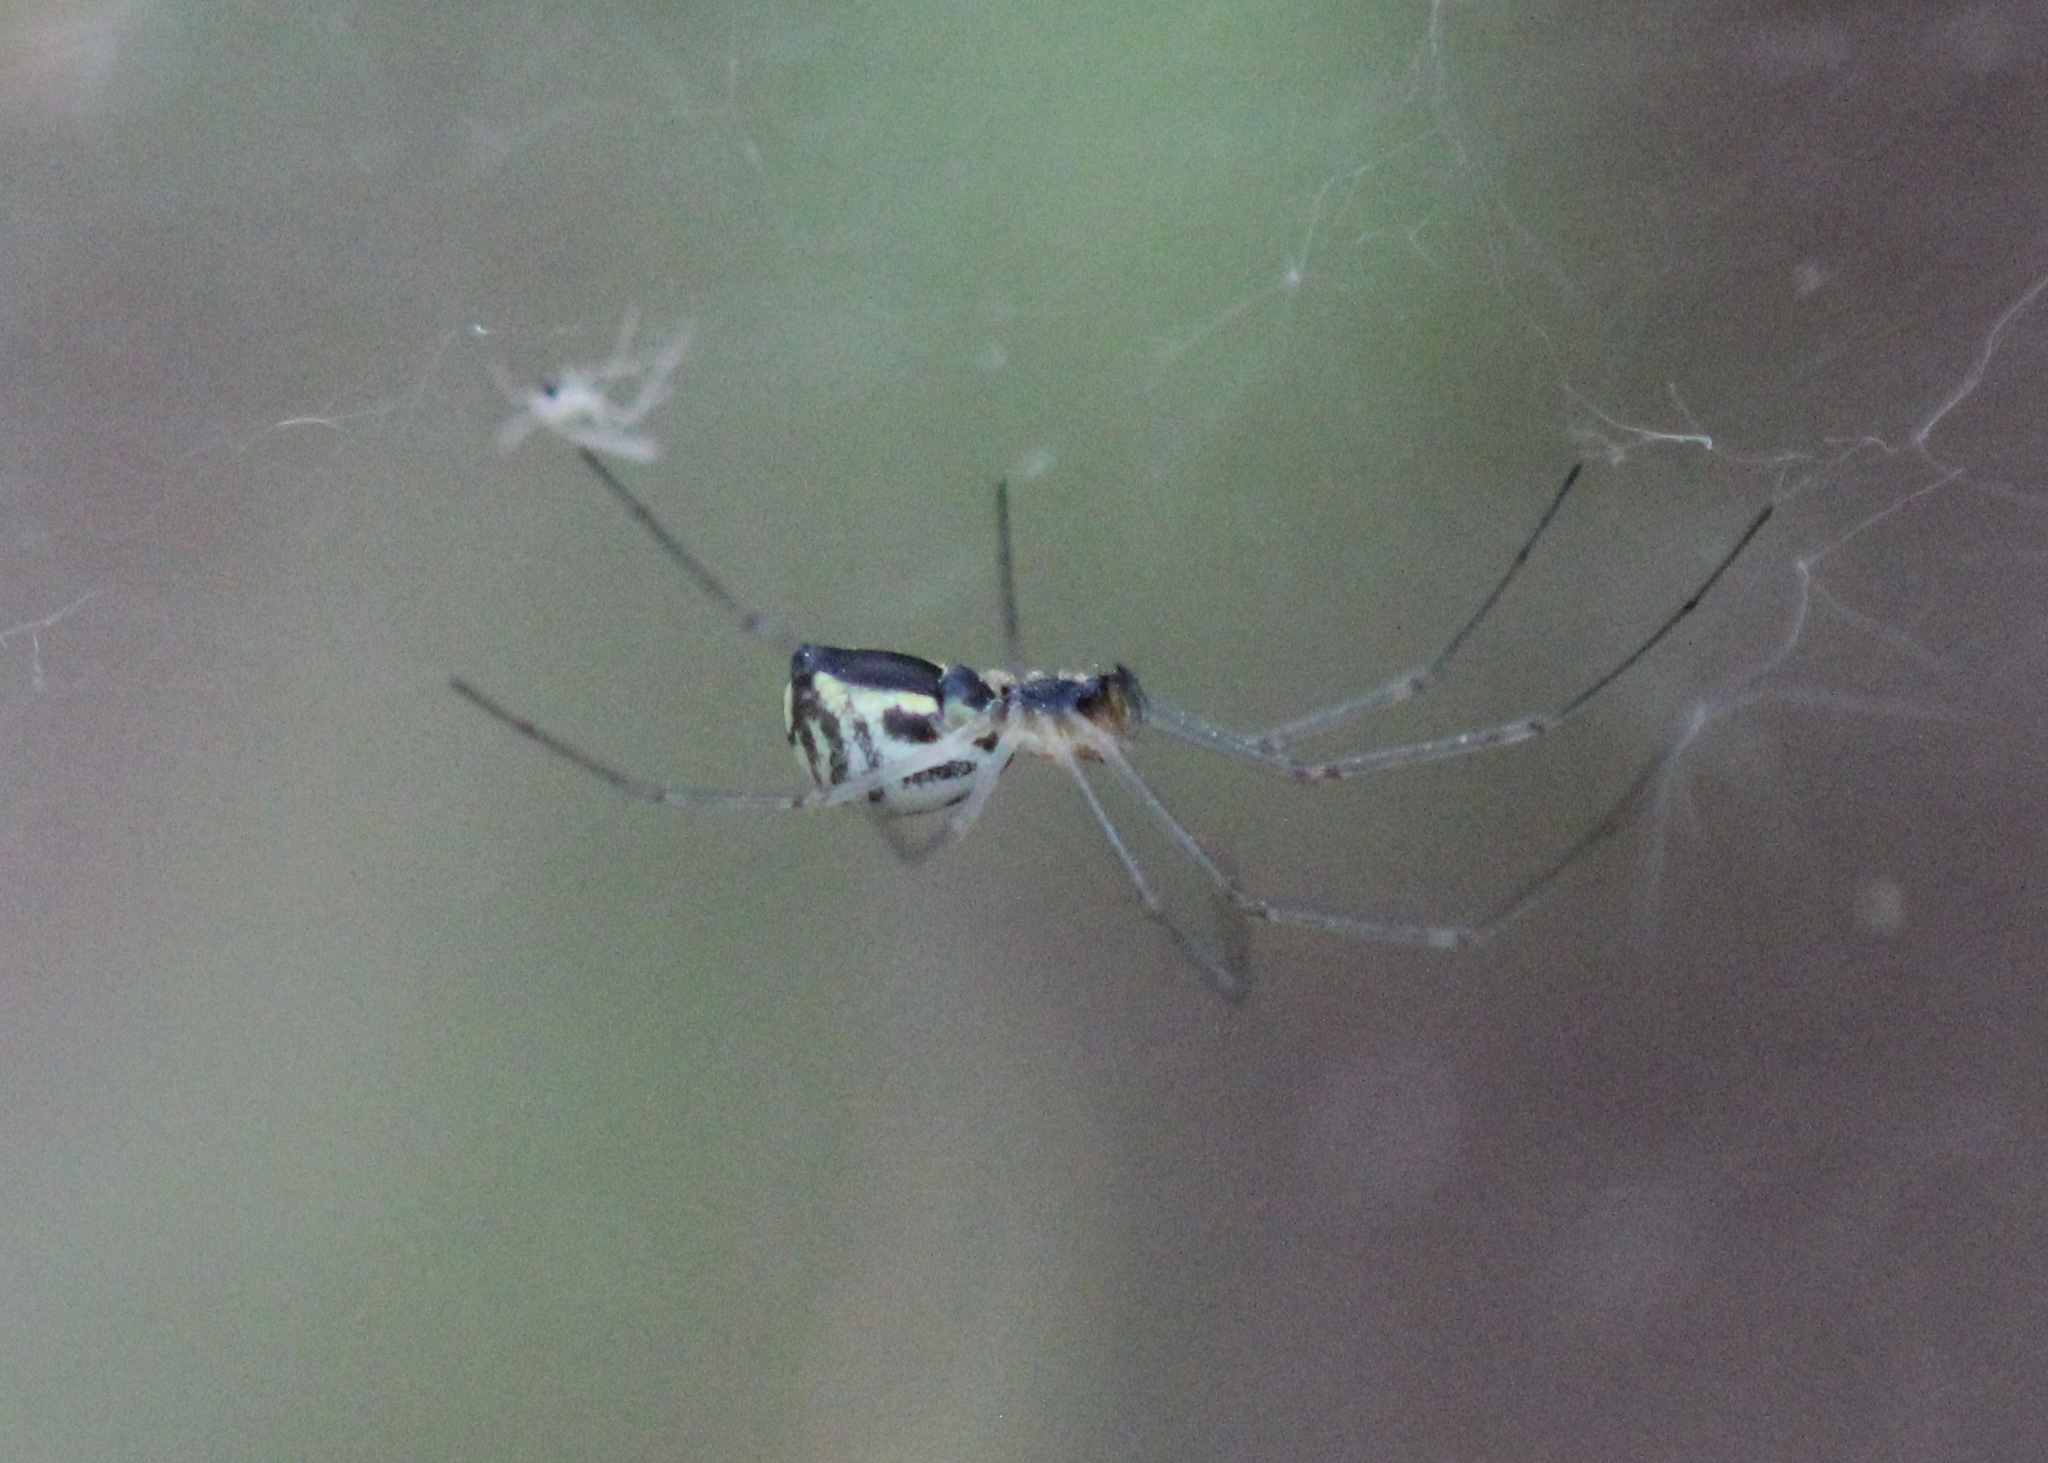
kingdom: Animalia
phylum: Arthropoda
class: Arachnida
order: Araneae
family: Linyphiidae
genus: Neriene
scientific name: Neriene radiata
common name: Filmy dome spider
